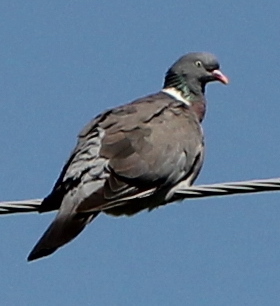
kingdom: Animalia
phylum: Chordata
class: Aves
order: Columbiformes
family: Columbidae
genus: Columba
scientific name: Columba palumbus
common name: Common wood pigeon
